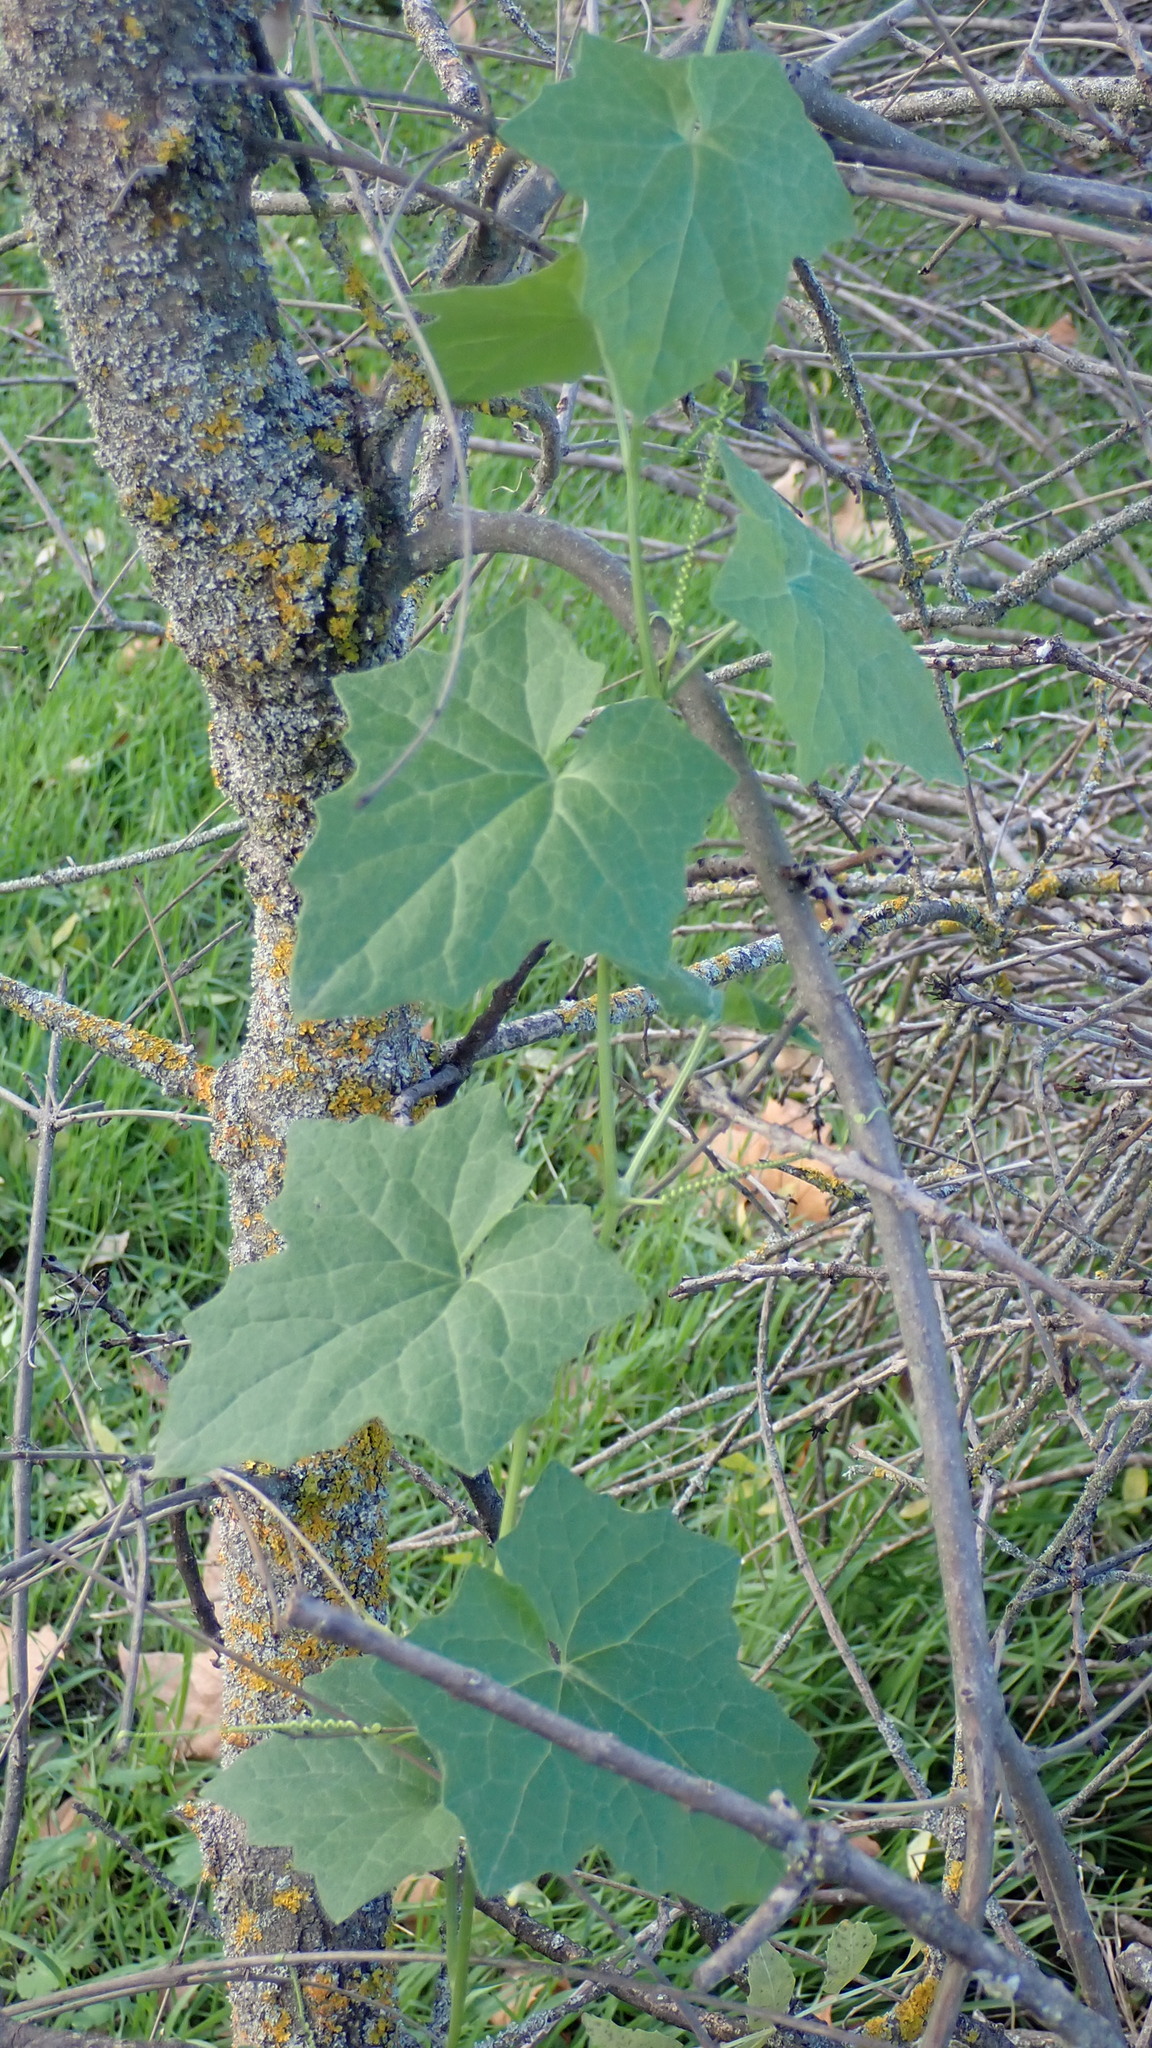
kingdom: Plantae
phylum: Tracheophyta
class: Magnoliopsida
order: Cucurbitales
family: Cucurbitaceae
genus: Bryonia
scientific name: Bryonia dioica
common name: White bryony
